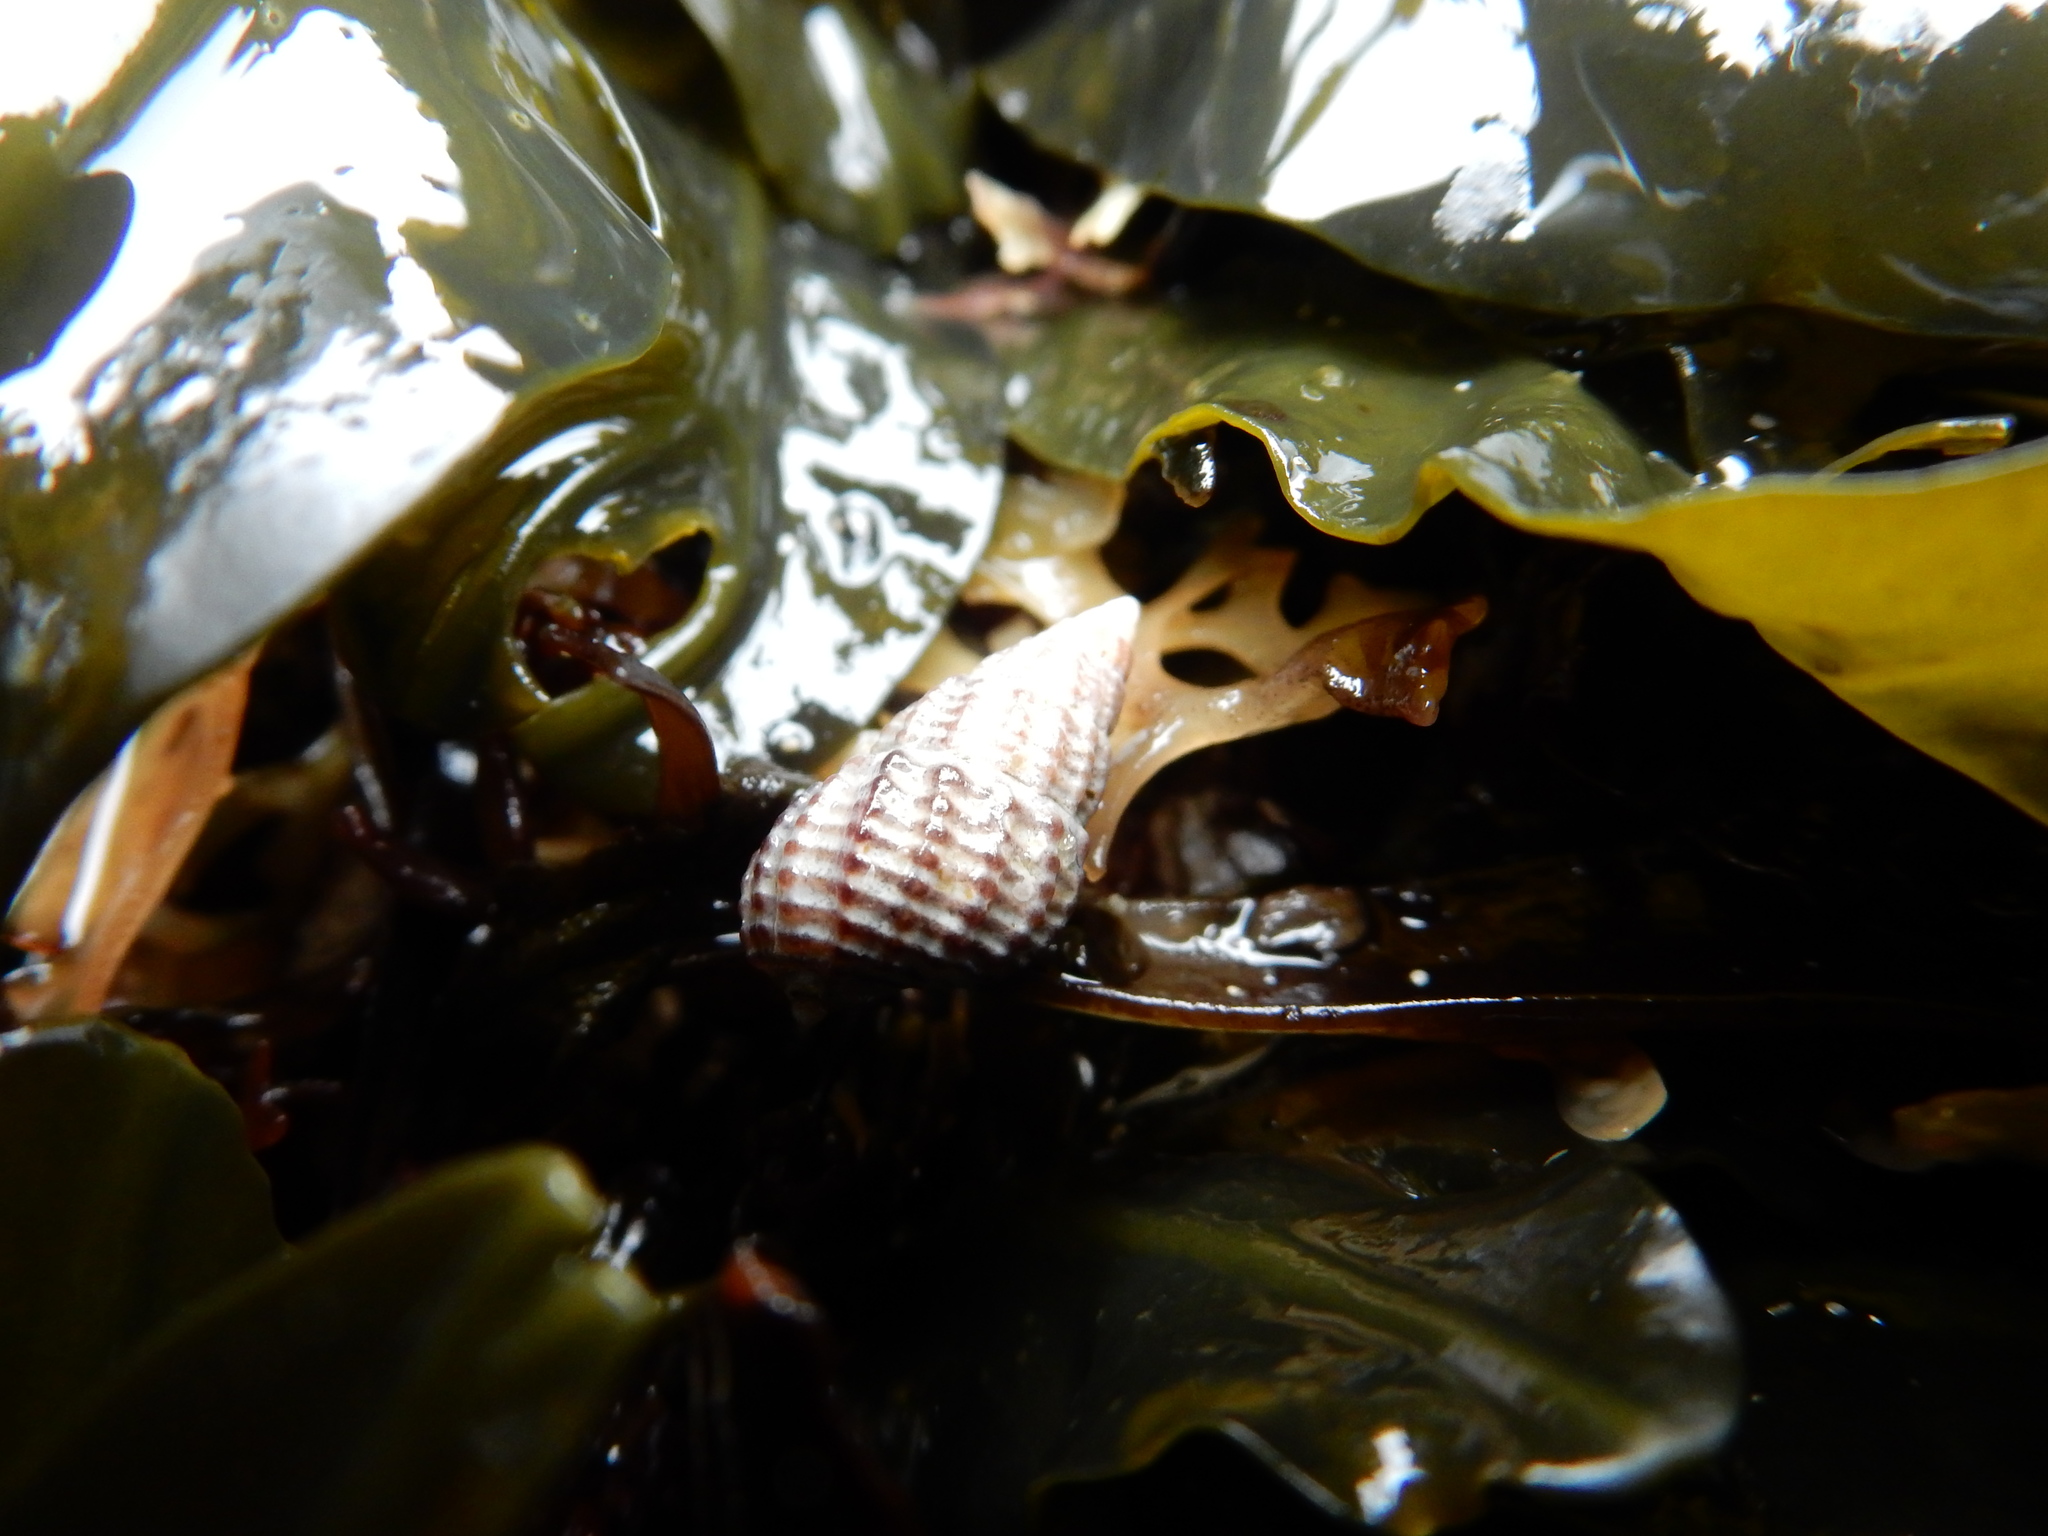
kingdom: Animalia
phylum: Mollusca
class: Gastropoda
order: Neogastropoda
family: Nassariidae
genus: Ilyanassa
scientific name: Ilyanassa trivittata
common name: Three-line mudsnail
